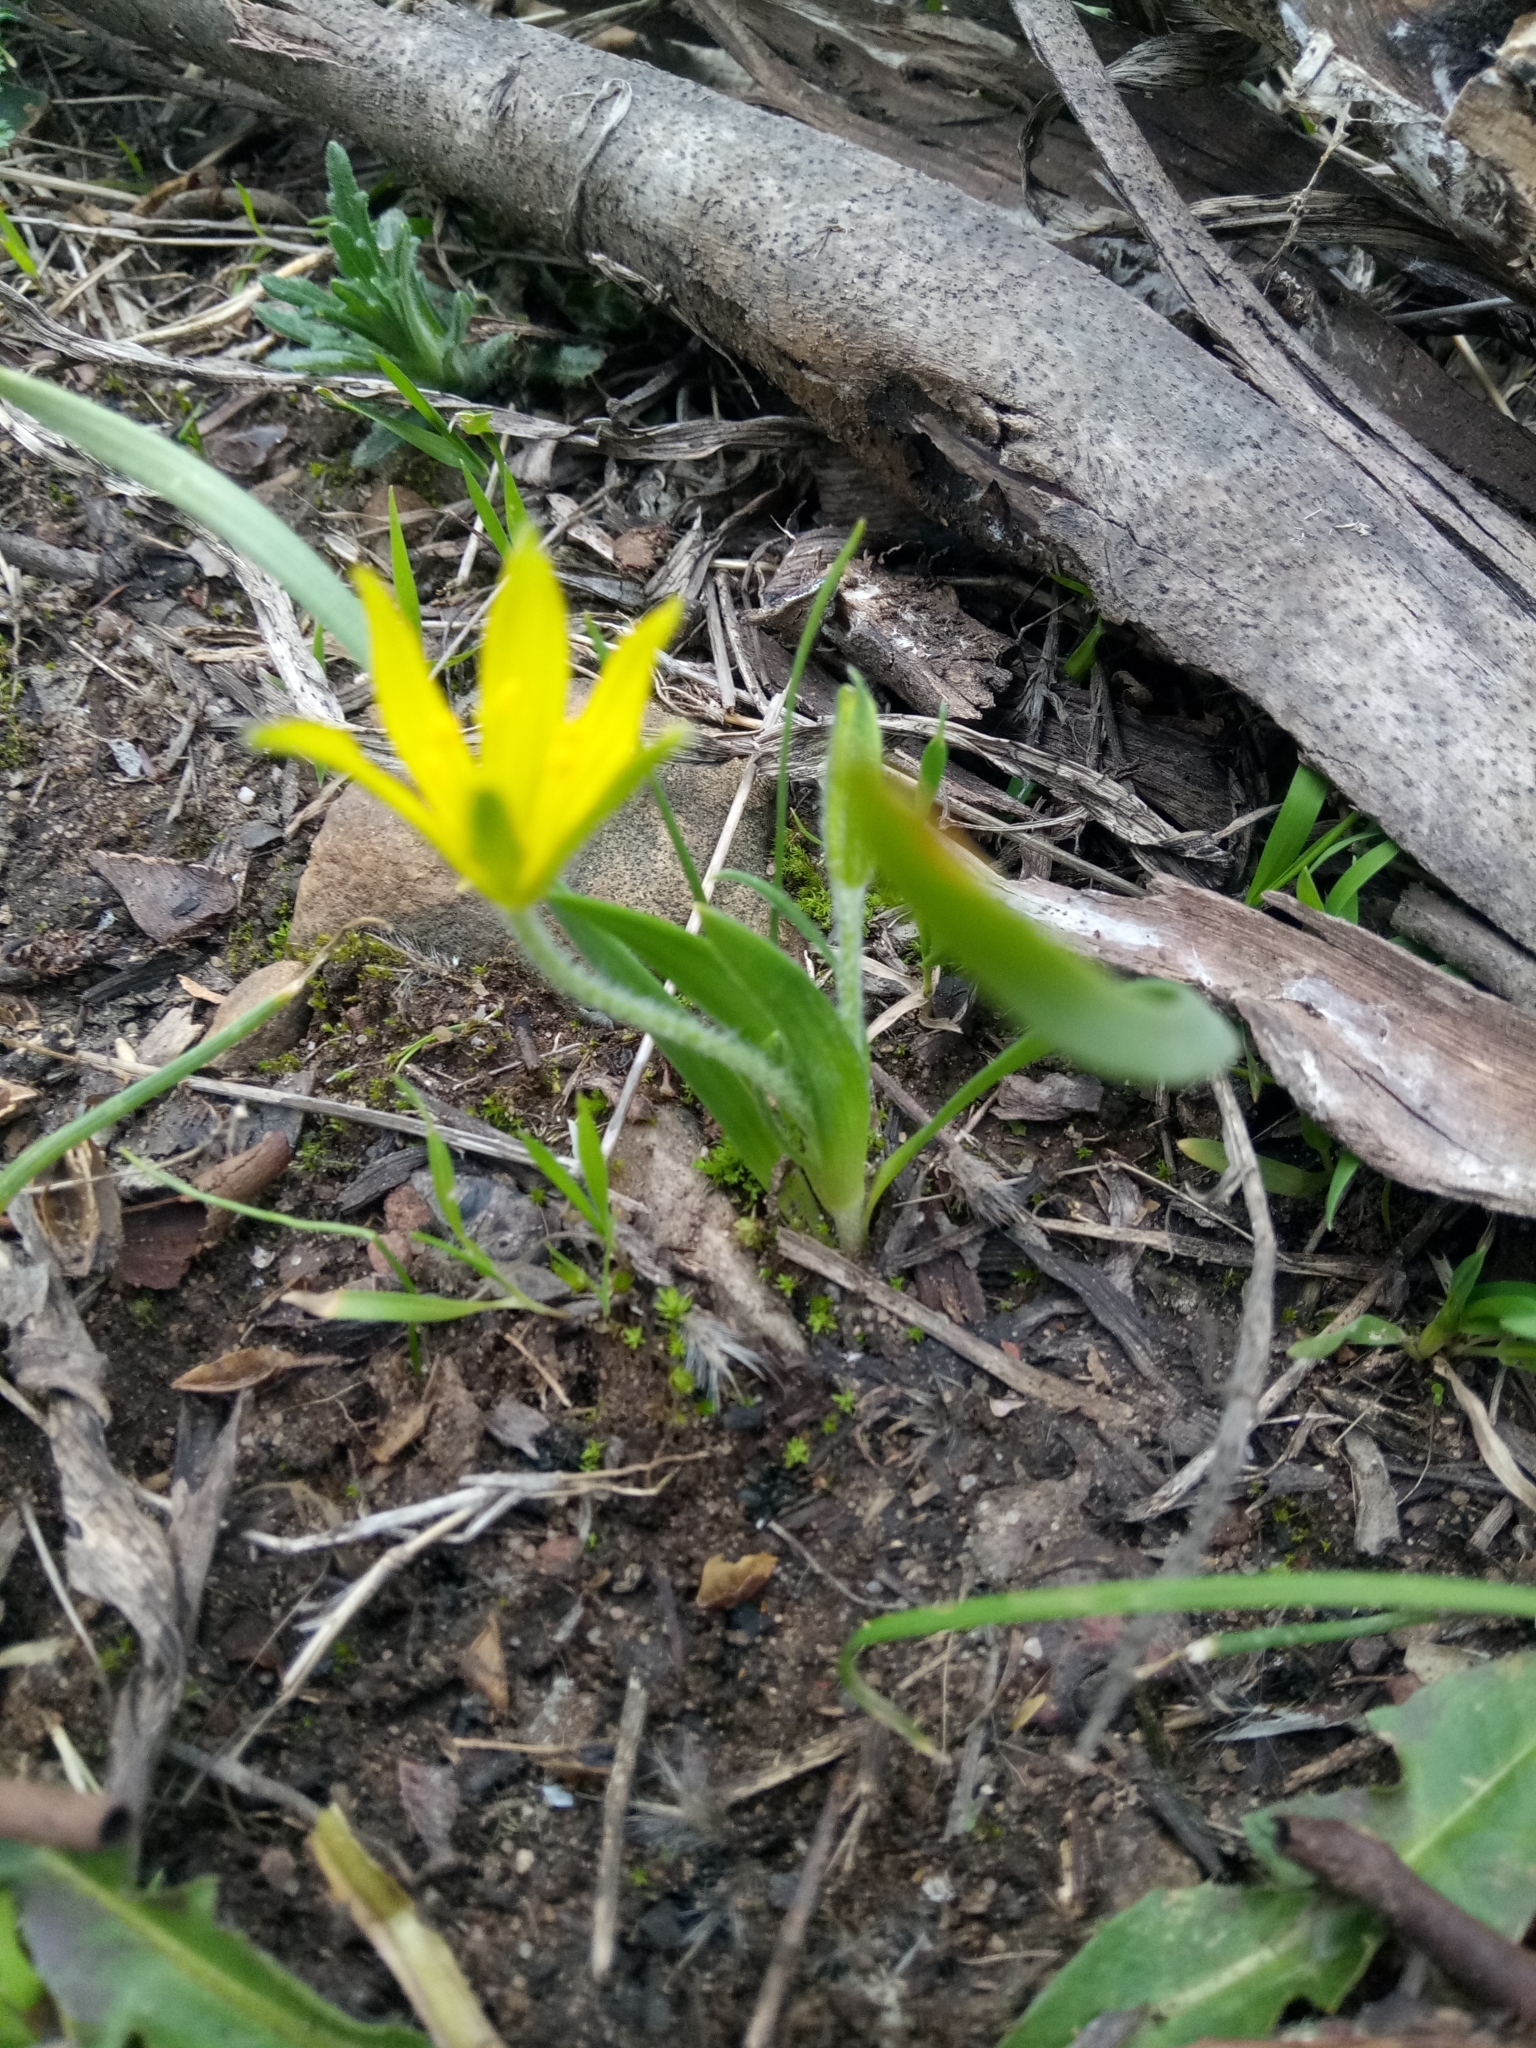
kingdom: Plantae
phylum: Tracheophyta
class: Liliopsida
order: Liliales
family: Liliaceae
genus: Gagea
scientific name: Gagea granatellii
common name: Granatelli’s gagea
